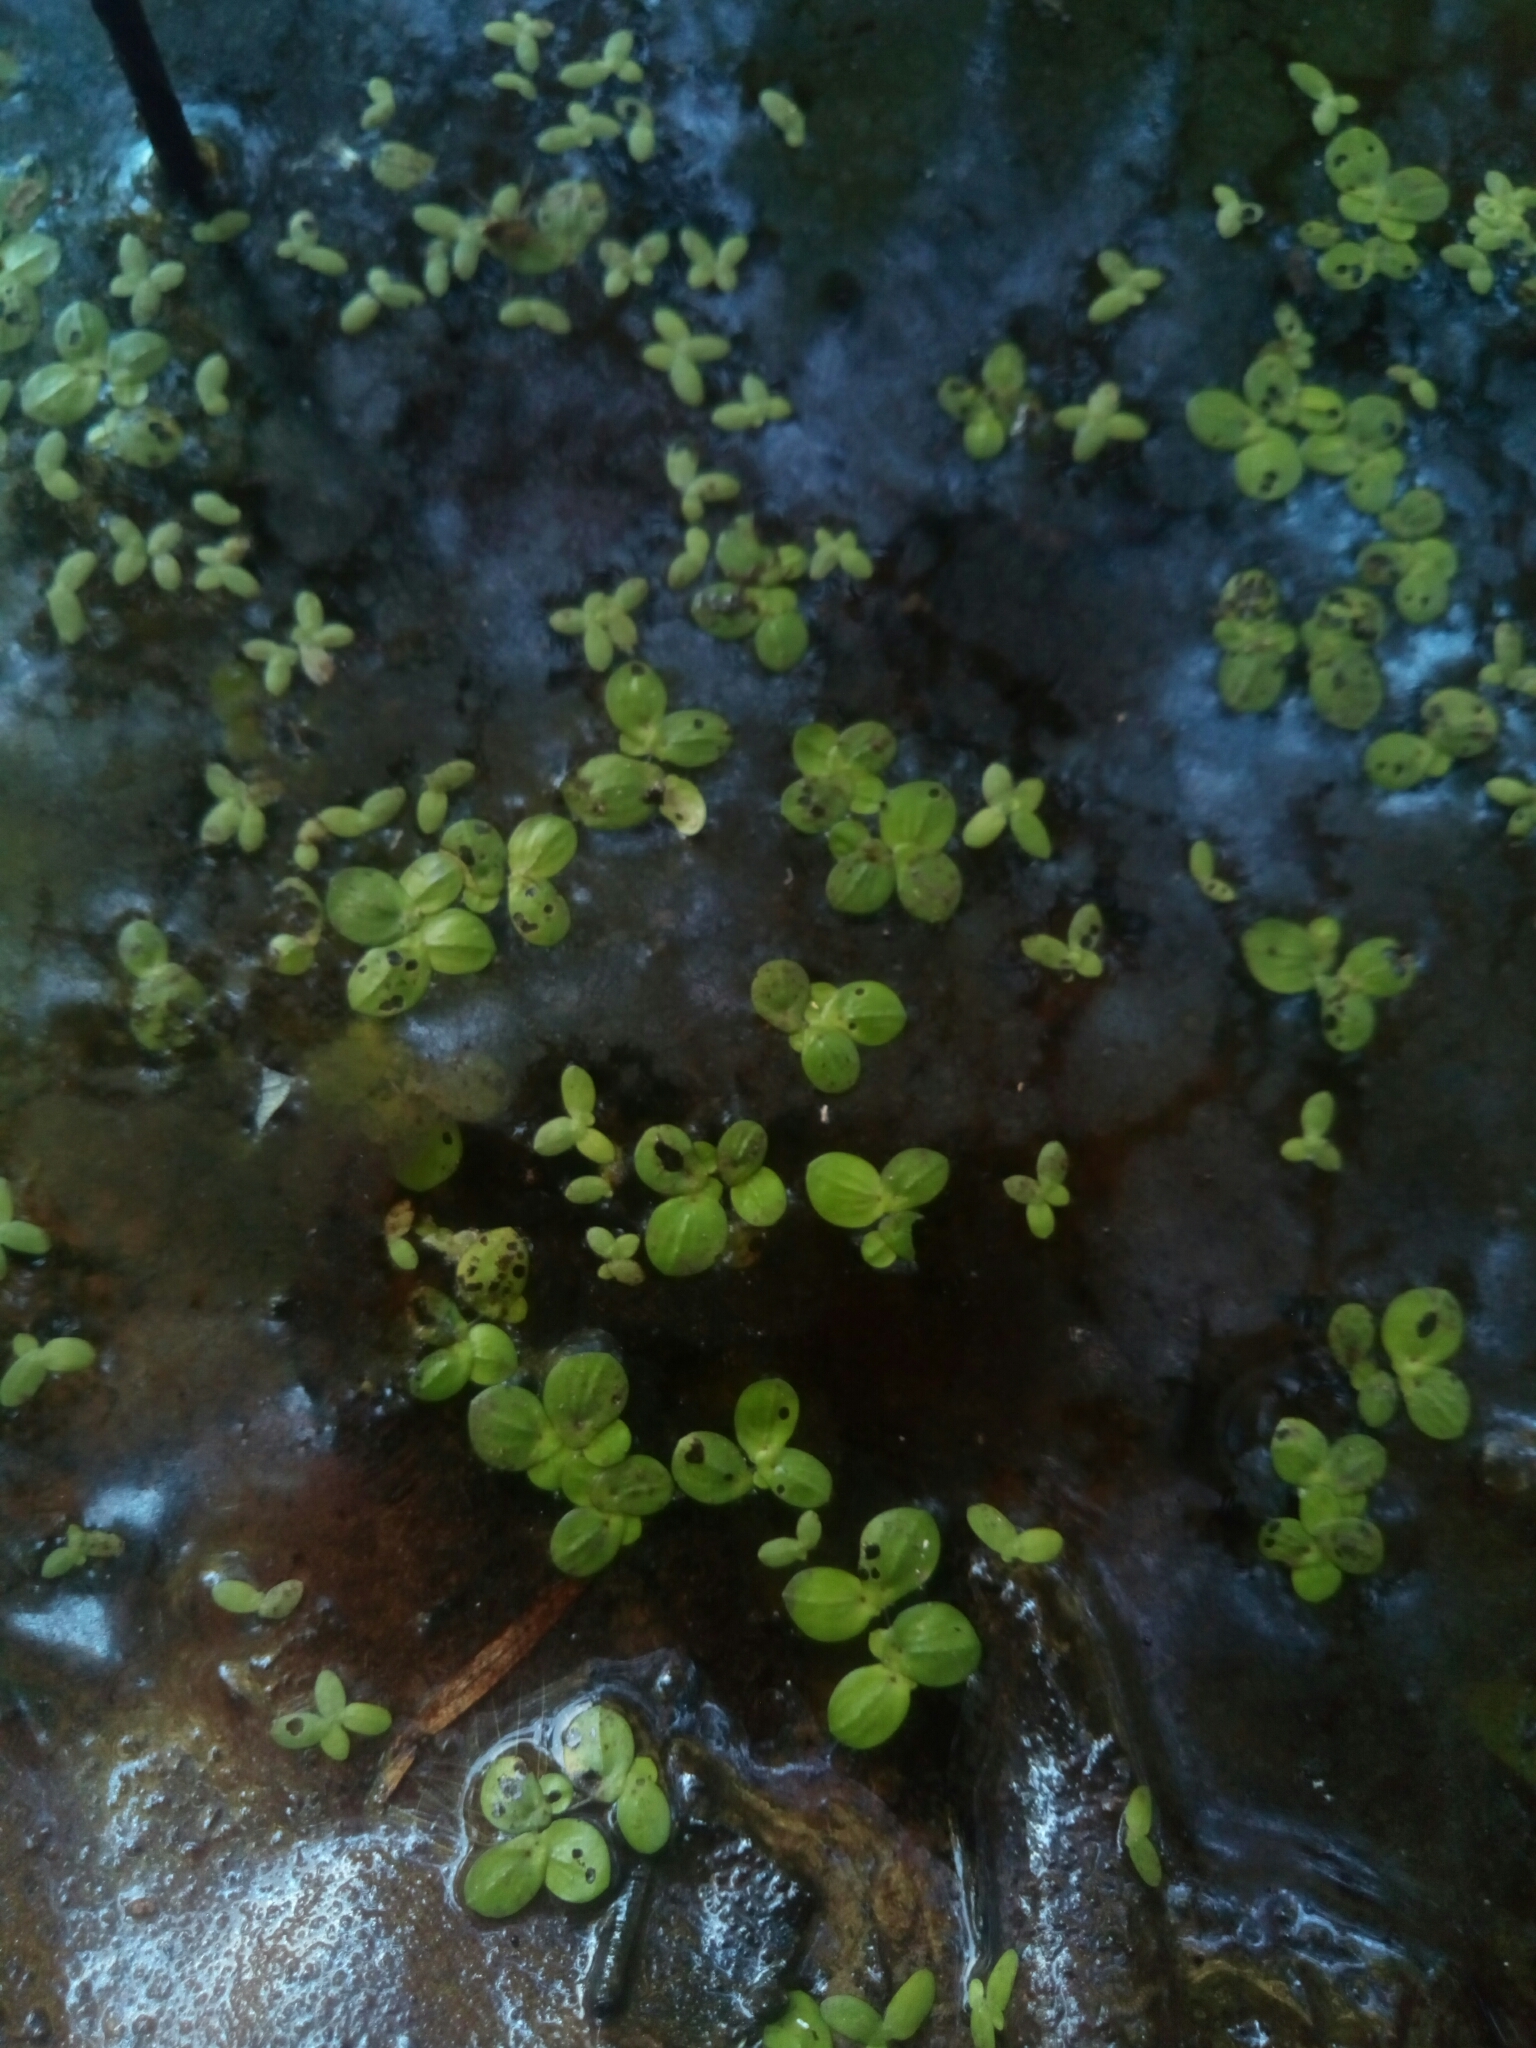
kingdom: Plantae
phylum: Tracheophyta
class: Liliopsida
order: Alismatales
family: Araceae
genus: Spirodela
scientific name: Spirodela polyrhiza
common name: Great duckweed
